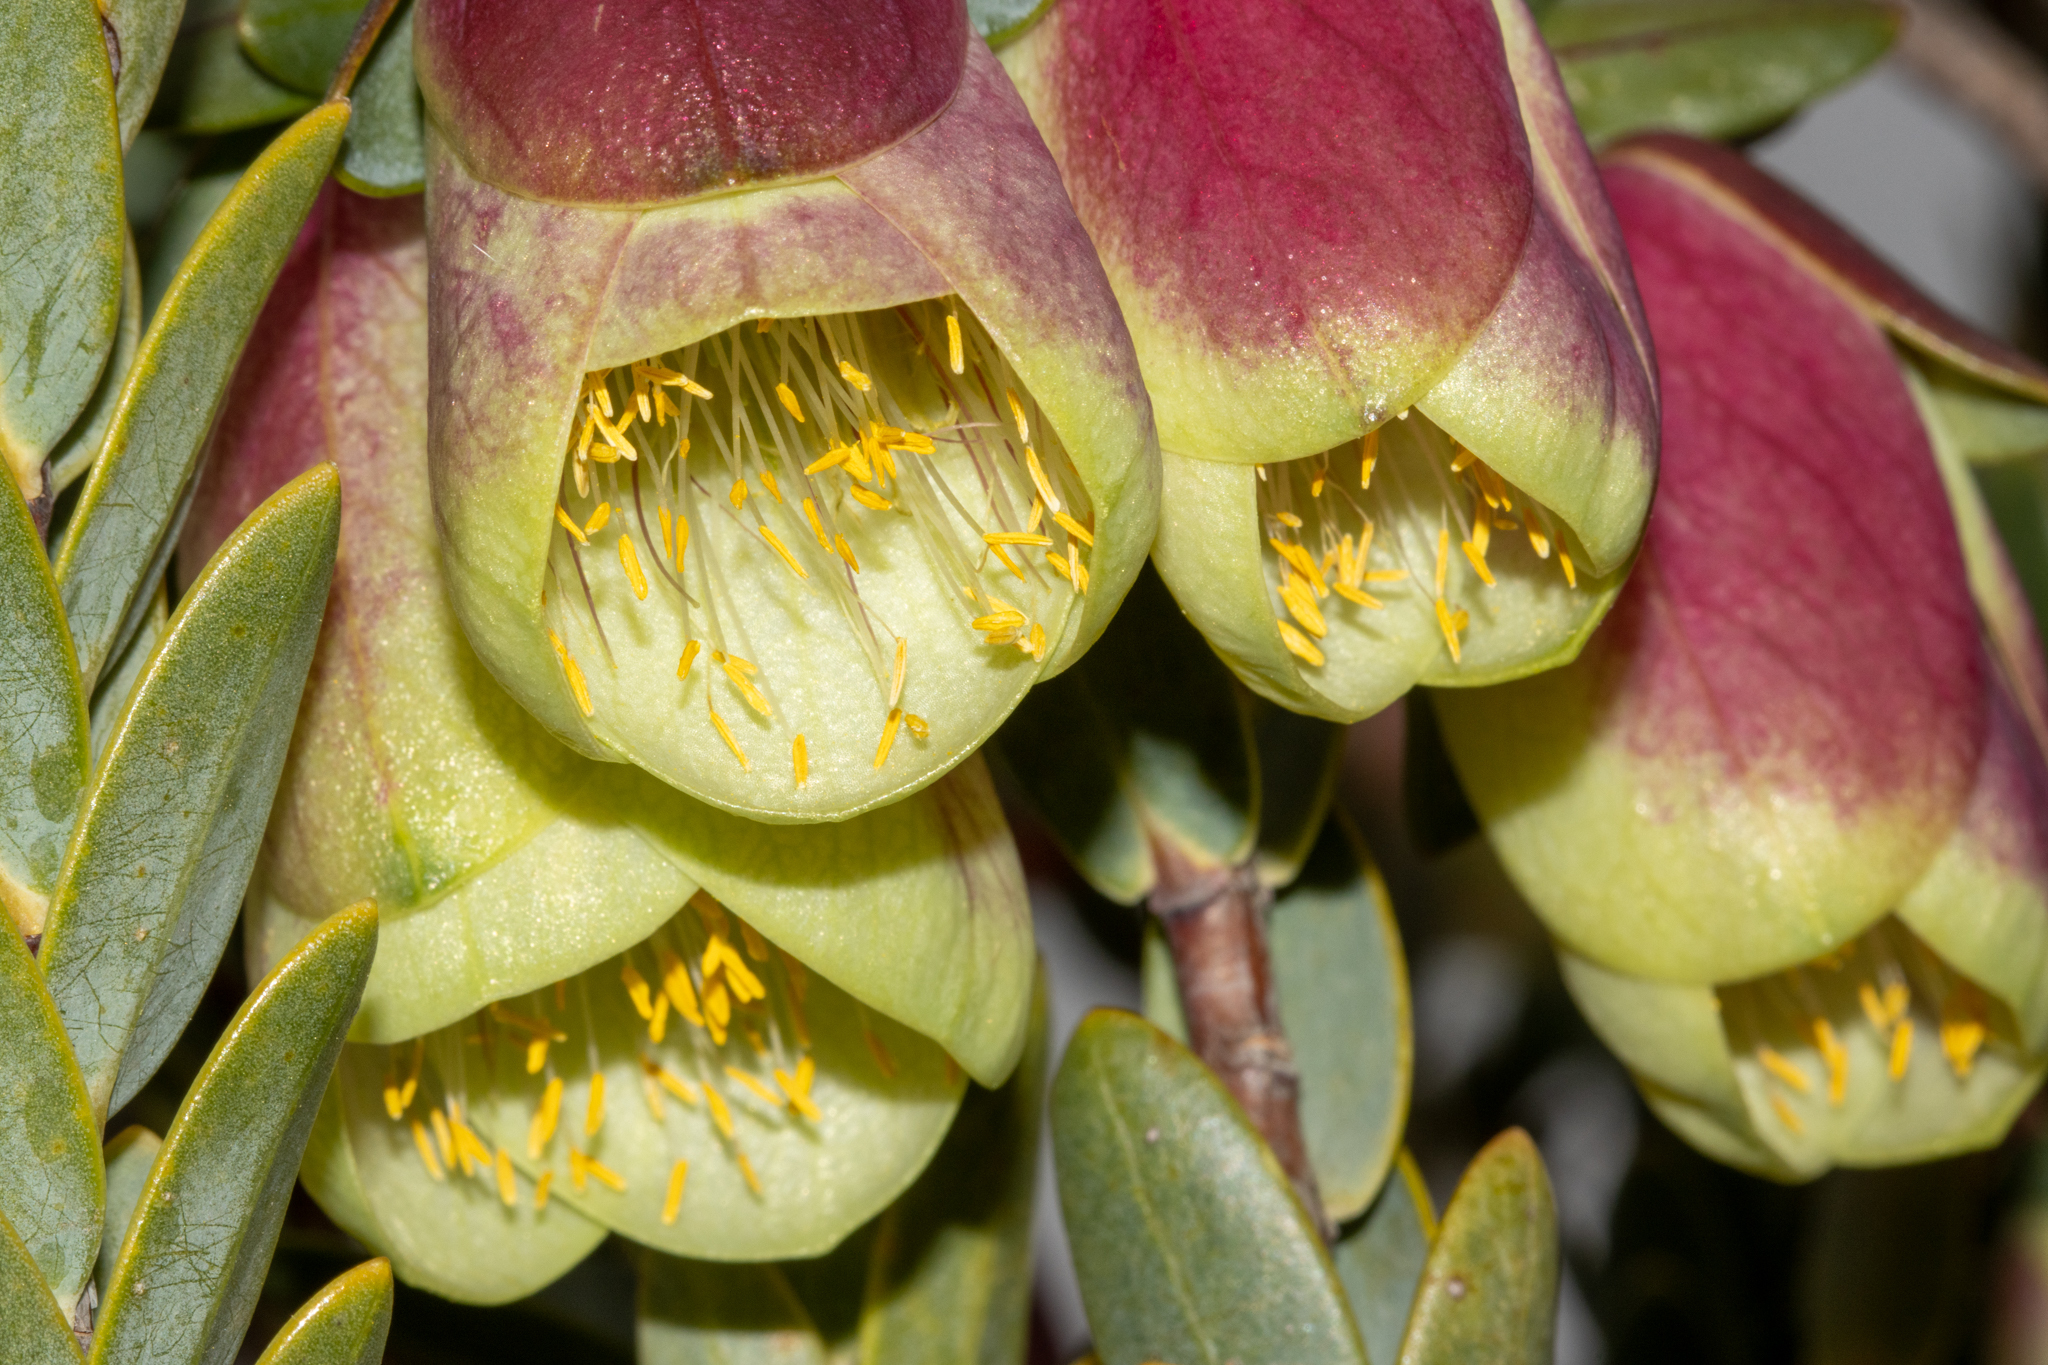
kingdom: Plantae
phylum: Tracheophyta
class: Magnoliopsida
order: Malvales
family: Thymelaeaceae
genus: Pimelea
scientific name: Pimelea physodes
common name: Qualup-bell
